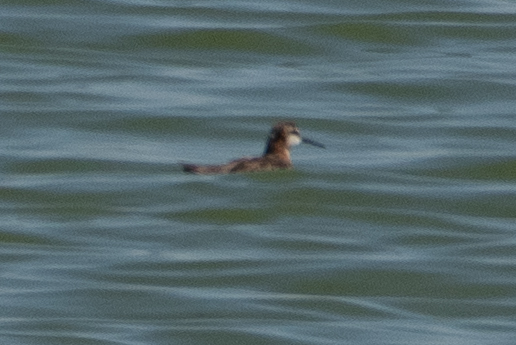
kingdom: Animalia
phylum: Chordata
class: Aves
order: Charadriiformes
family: Scolopacidae
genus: Phalaropus
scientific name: Phalaropus tricolor
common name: Wilson's phalarope
